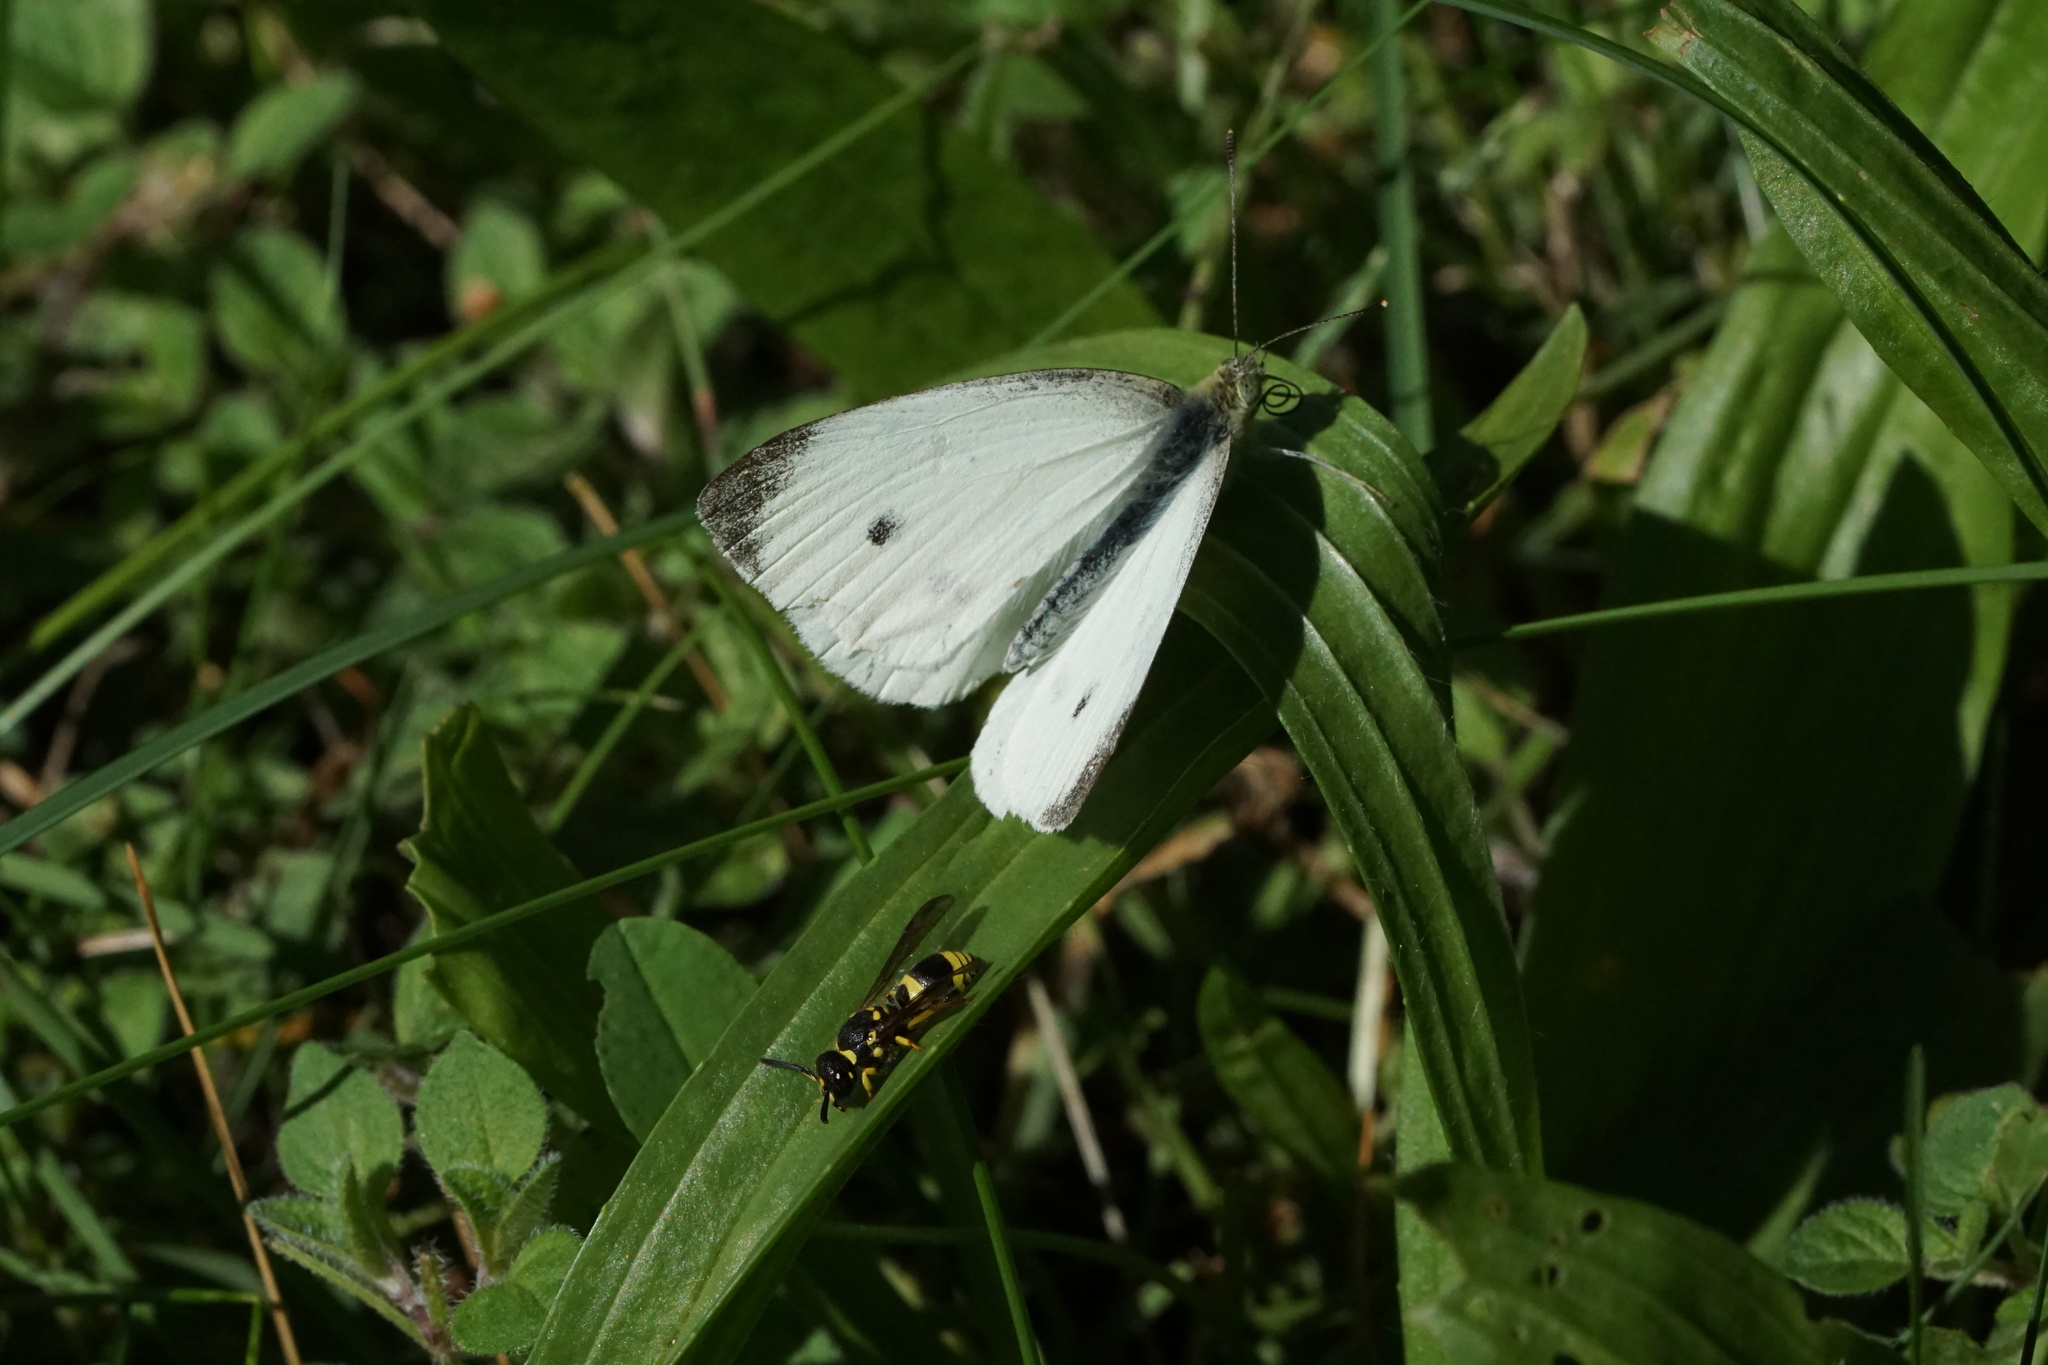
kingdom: Animalia
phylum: Arthropoda
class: Insecta
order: Lepidoptera
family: Pieridae
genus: Pieris
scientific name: Pieris rapae
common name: Small white
